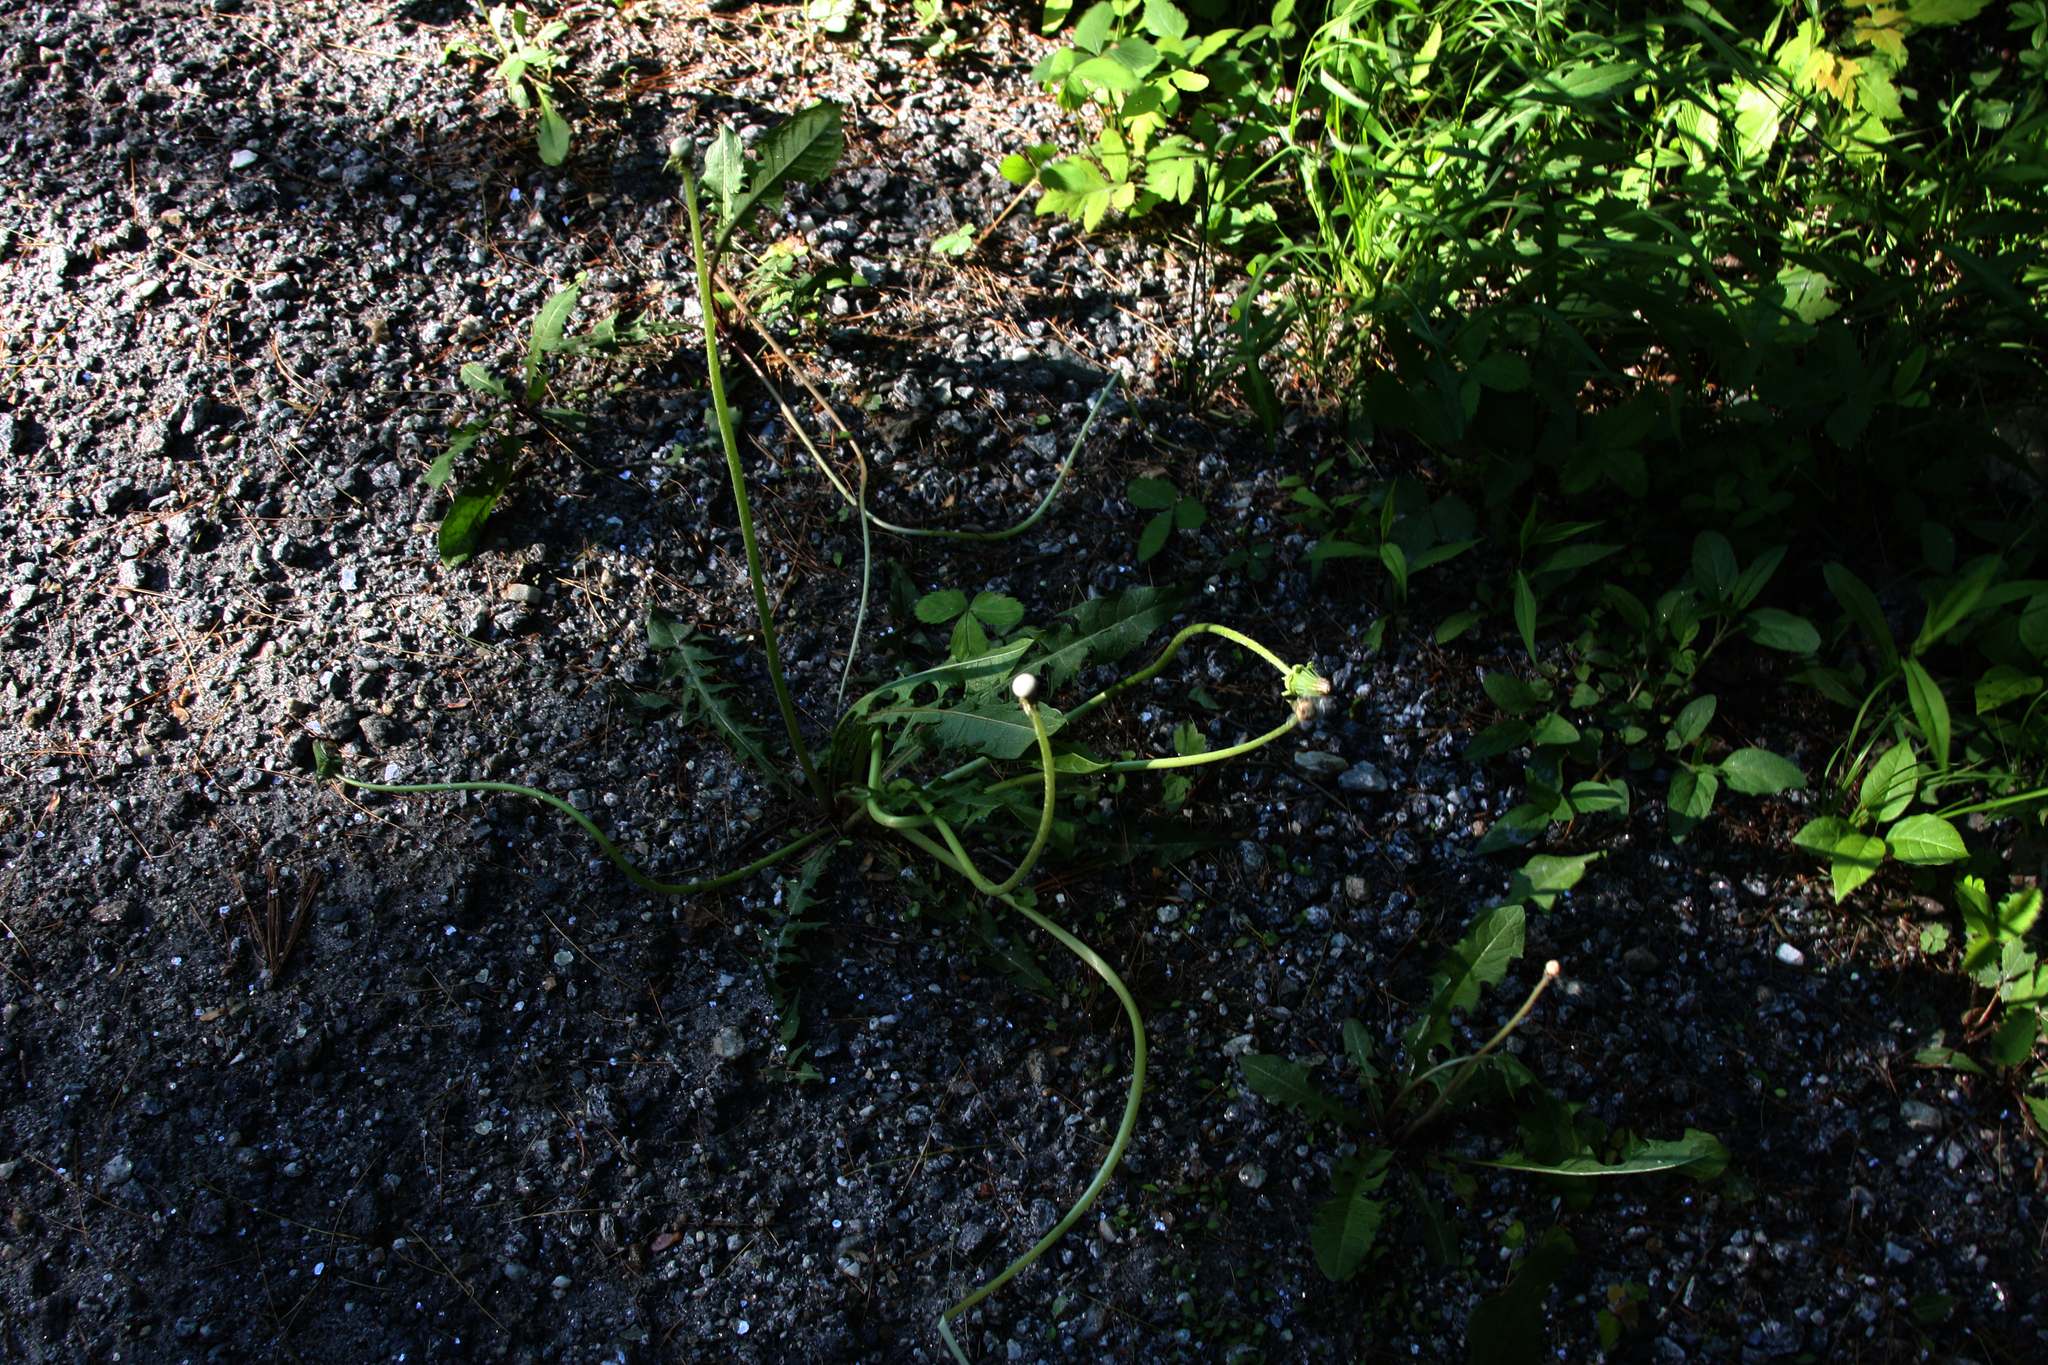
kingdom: Plantae
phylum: Tracheophyta
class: Magnoliopsida
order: Asterales
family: Asteraceae
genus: Taraxacum
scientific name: Taraxacum officinale
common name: Common dandelion
